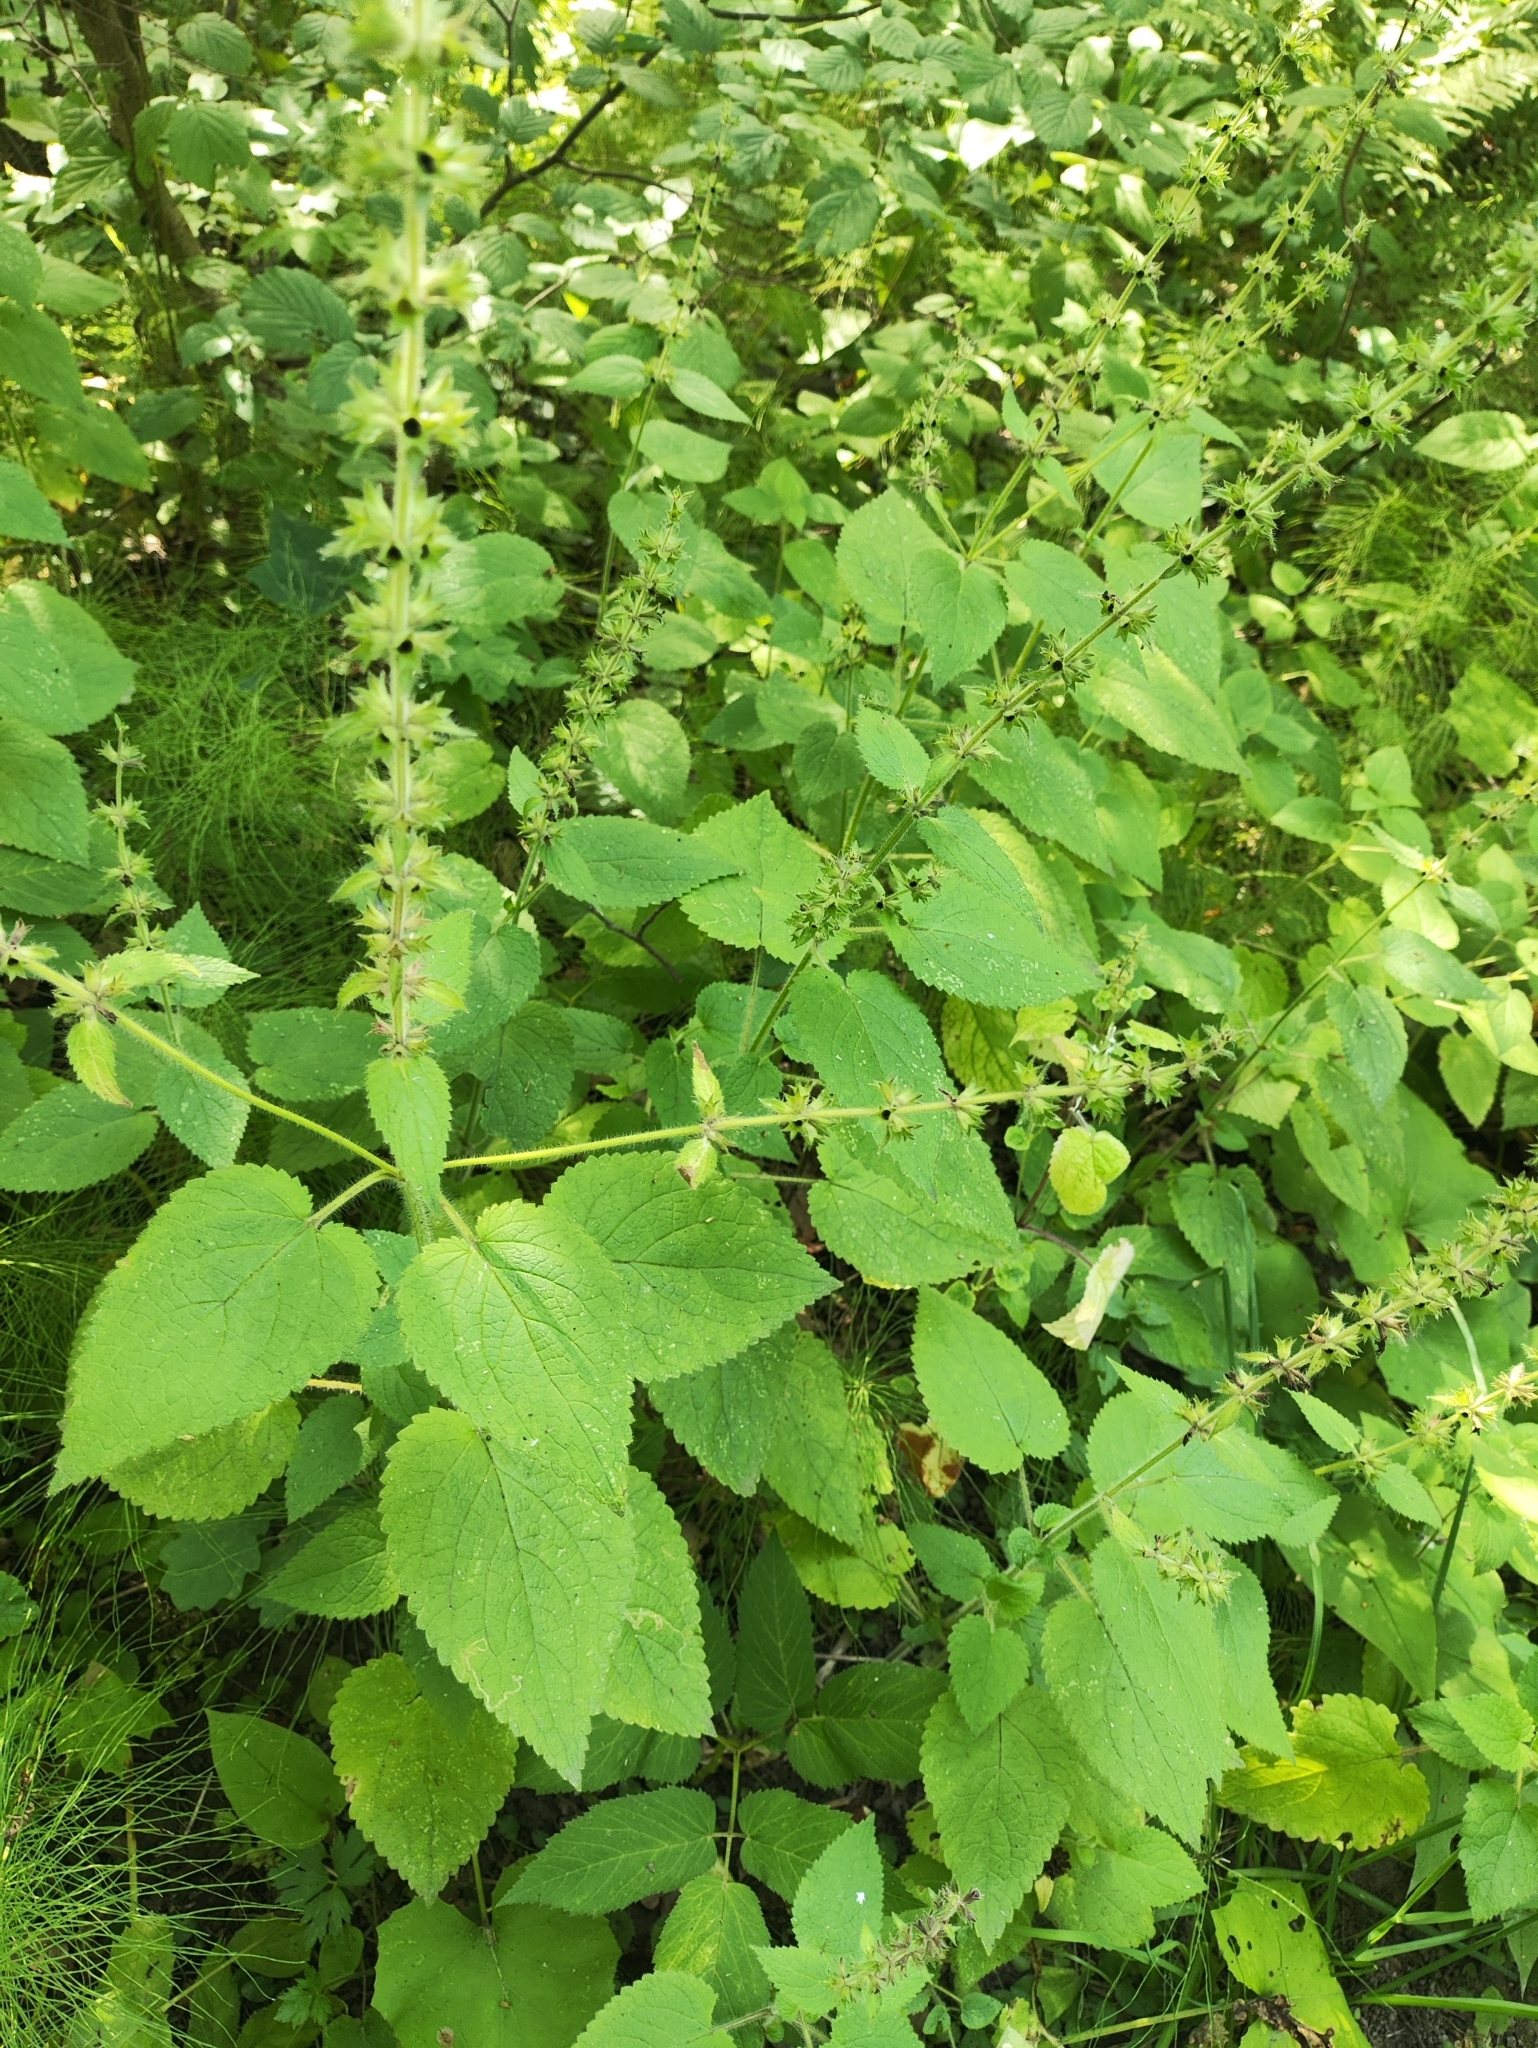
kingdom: Plantae
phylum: Tracheophyta
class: Magnoliopsida
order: Lamiales
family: Lamiaceae
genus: Stachys
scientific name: Stachys sylvatica
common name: Hedge woundwort
